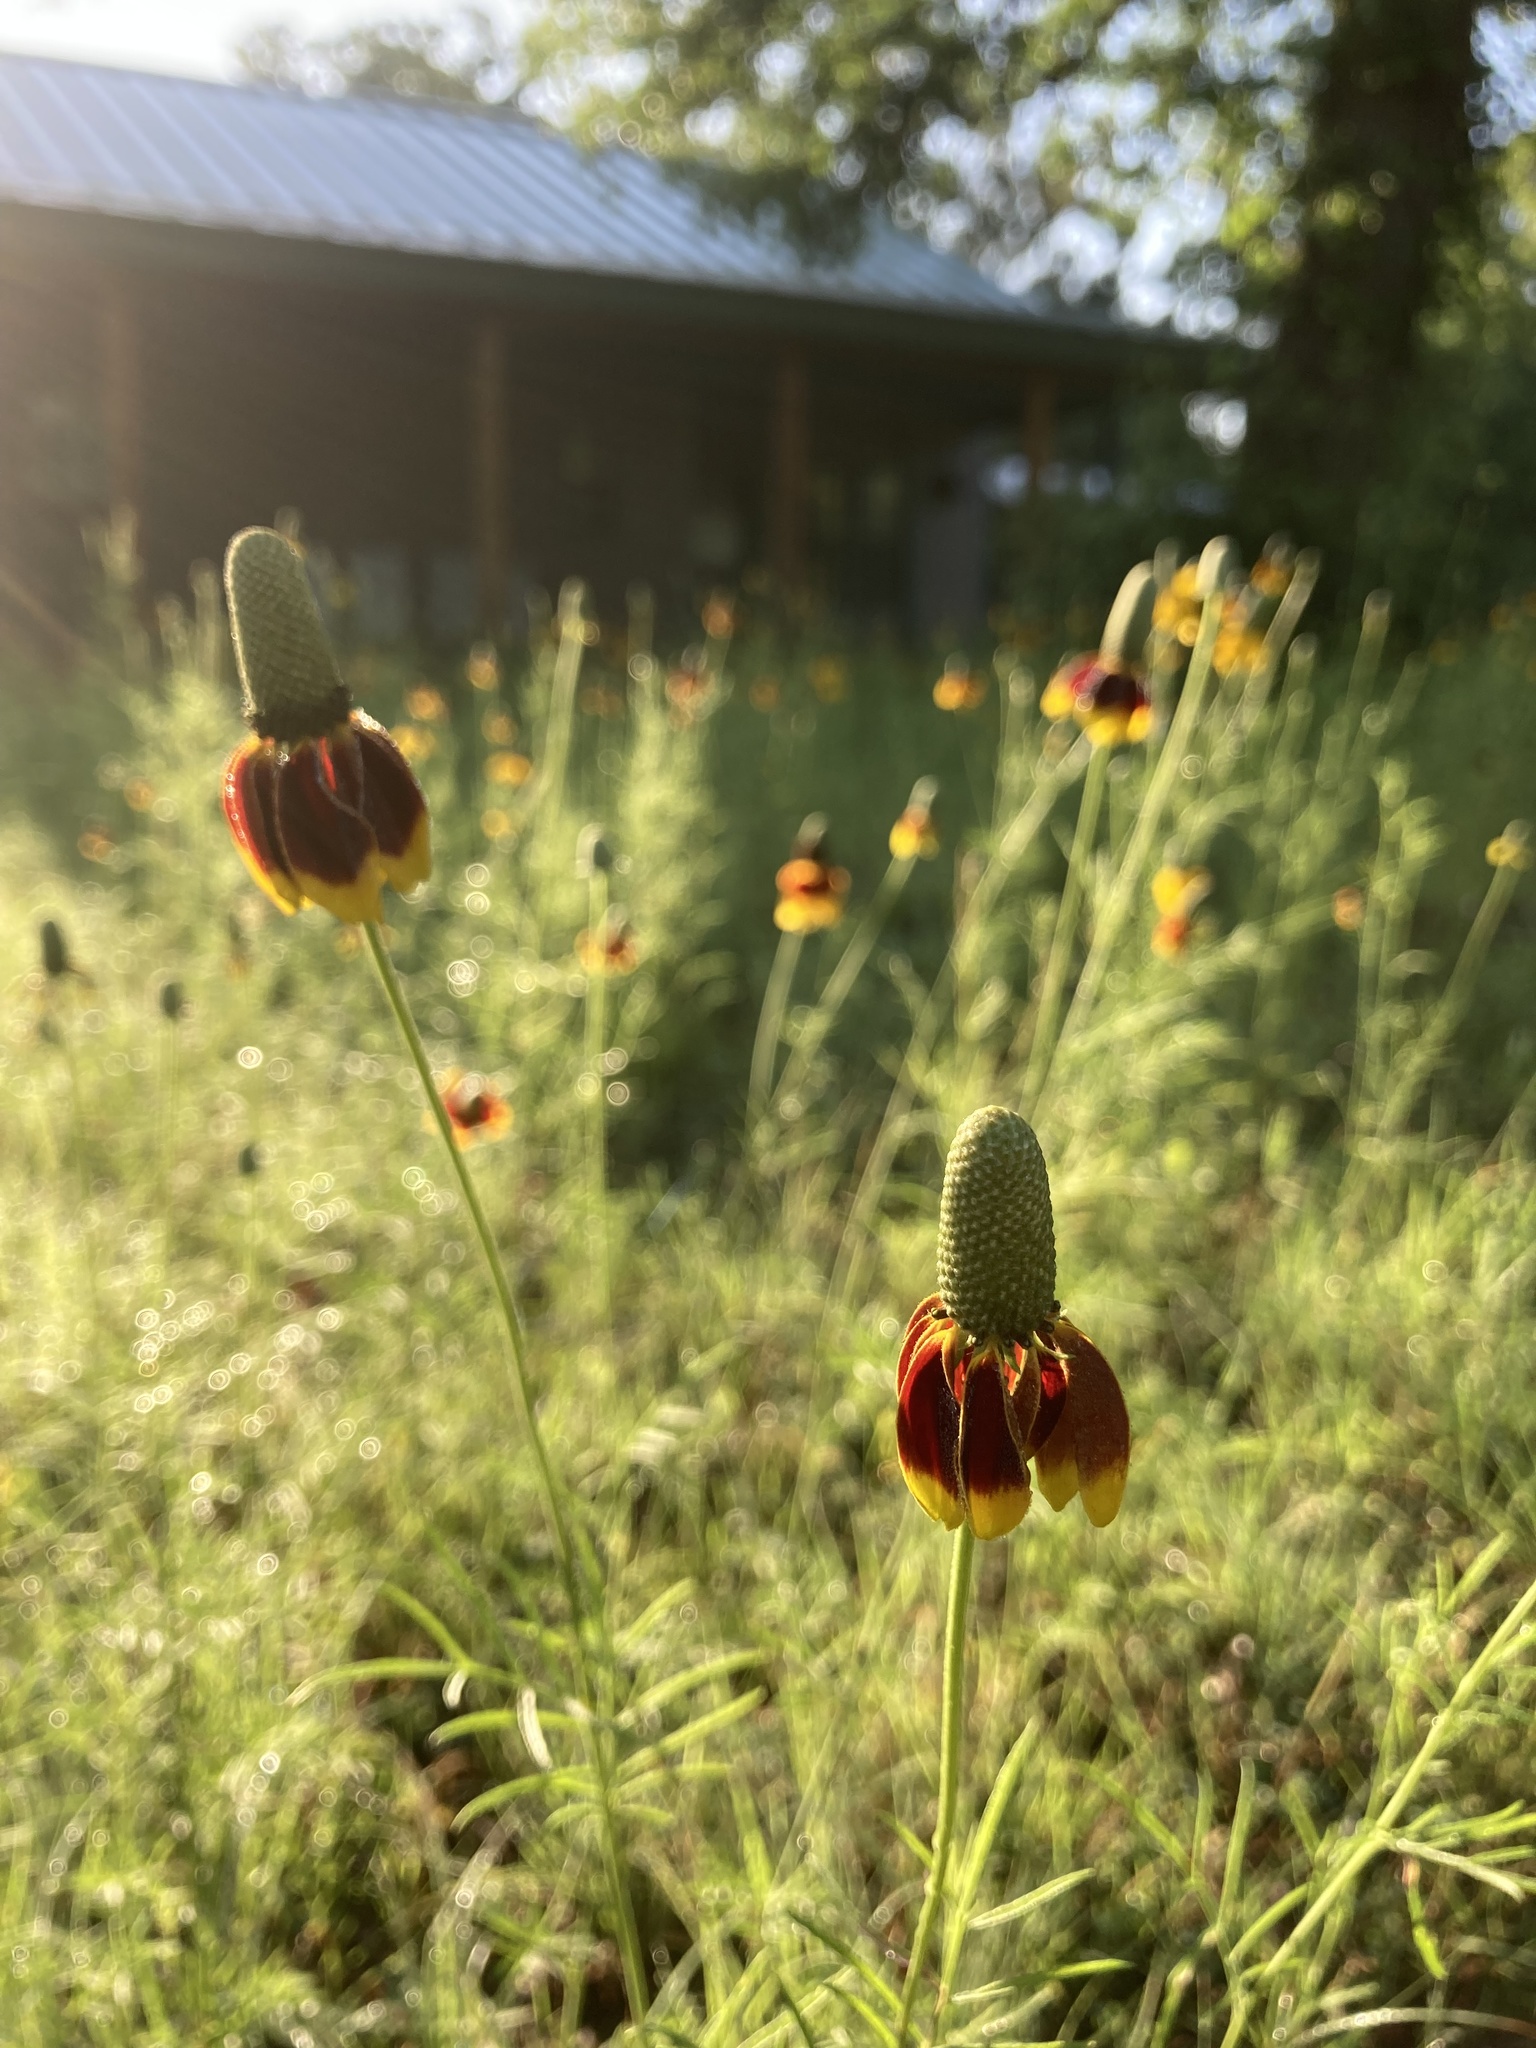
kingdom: Plantae
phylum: Tracheophyta
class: Magnoliopsida
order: Asterales
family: Asteraceae
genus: Ratibida
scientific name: Ratibida columnifera
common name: Prairie coneflower
